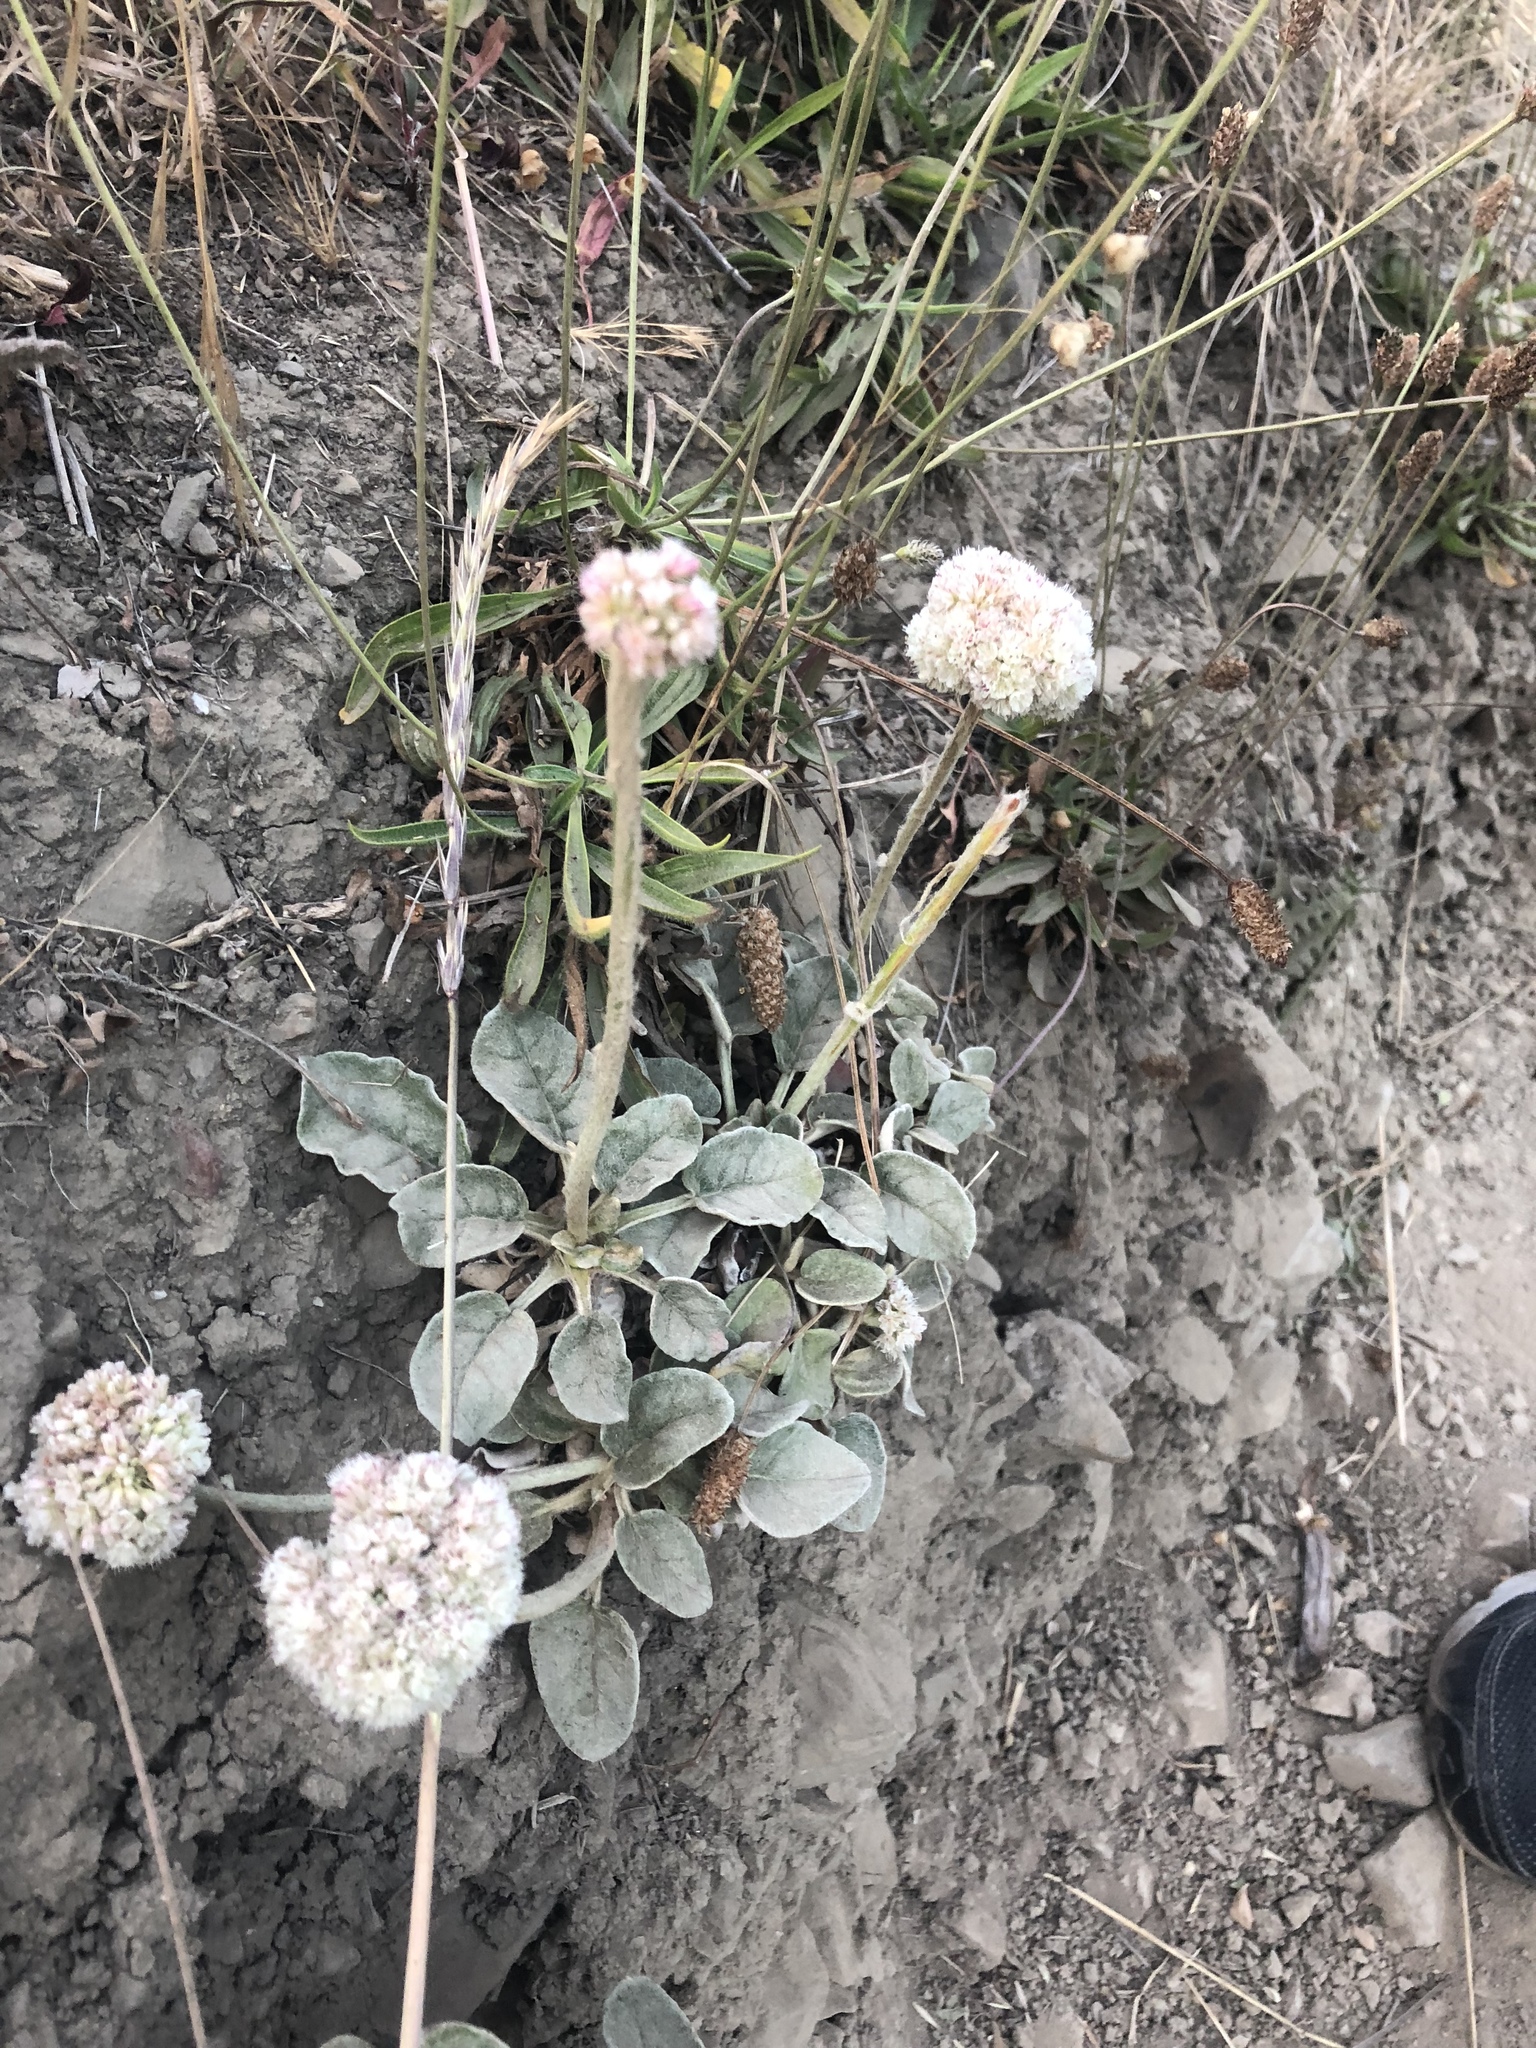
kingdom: Plantae
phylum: Tracheophyta
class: Magnoliopsida
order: Caryophyllales
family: Polygonaceae
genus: Eriogonum
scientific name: Eriogonum latifolium
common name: Seaside wild buckwheat
